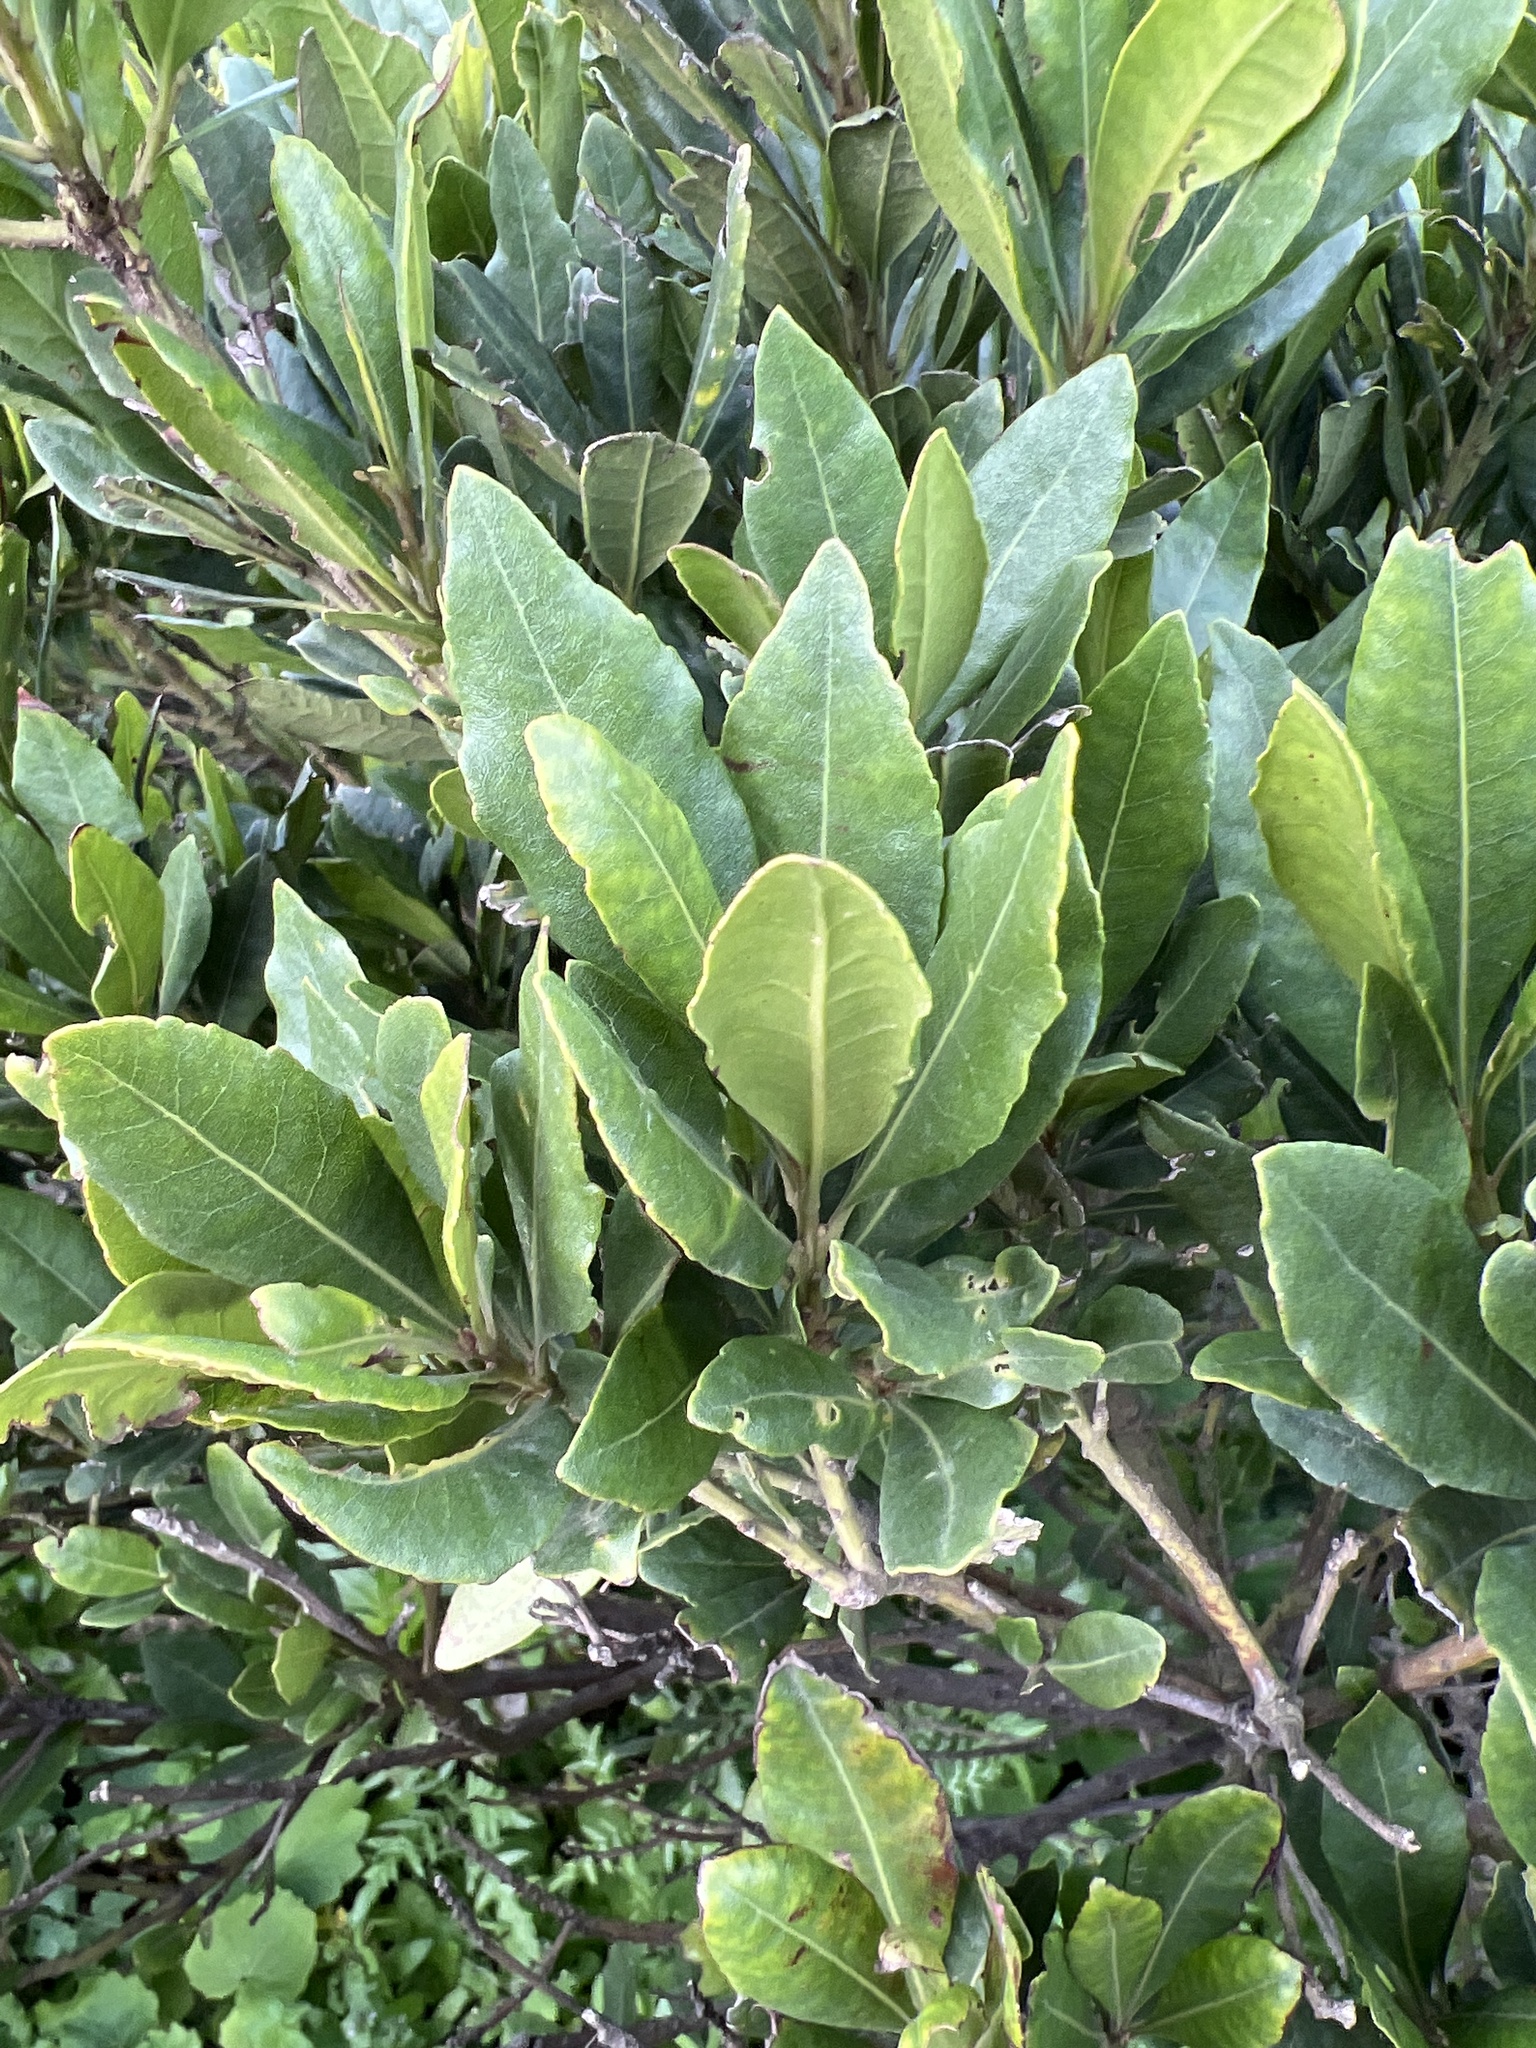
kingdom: Plantae
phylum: Tracheophyta
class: Magnoliopsida
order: Fagales
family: Myricaceae
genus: Morella
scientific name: Morella faya
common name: Firetree
